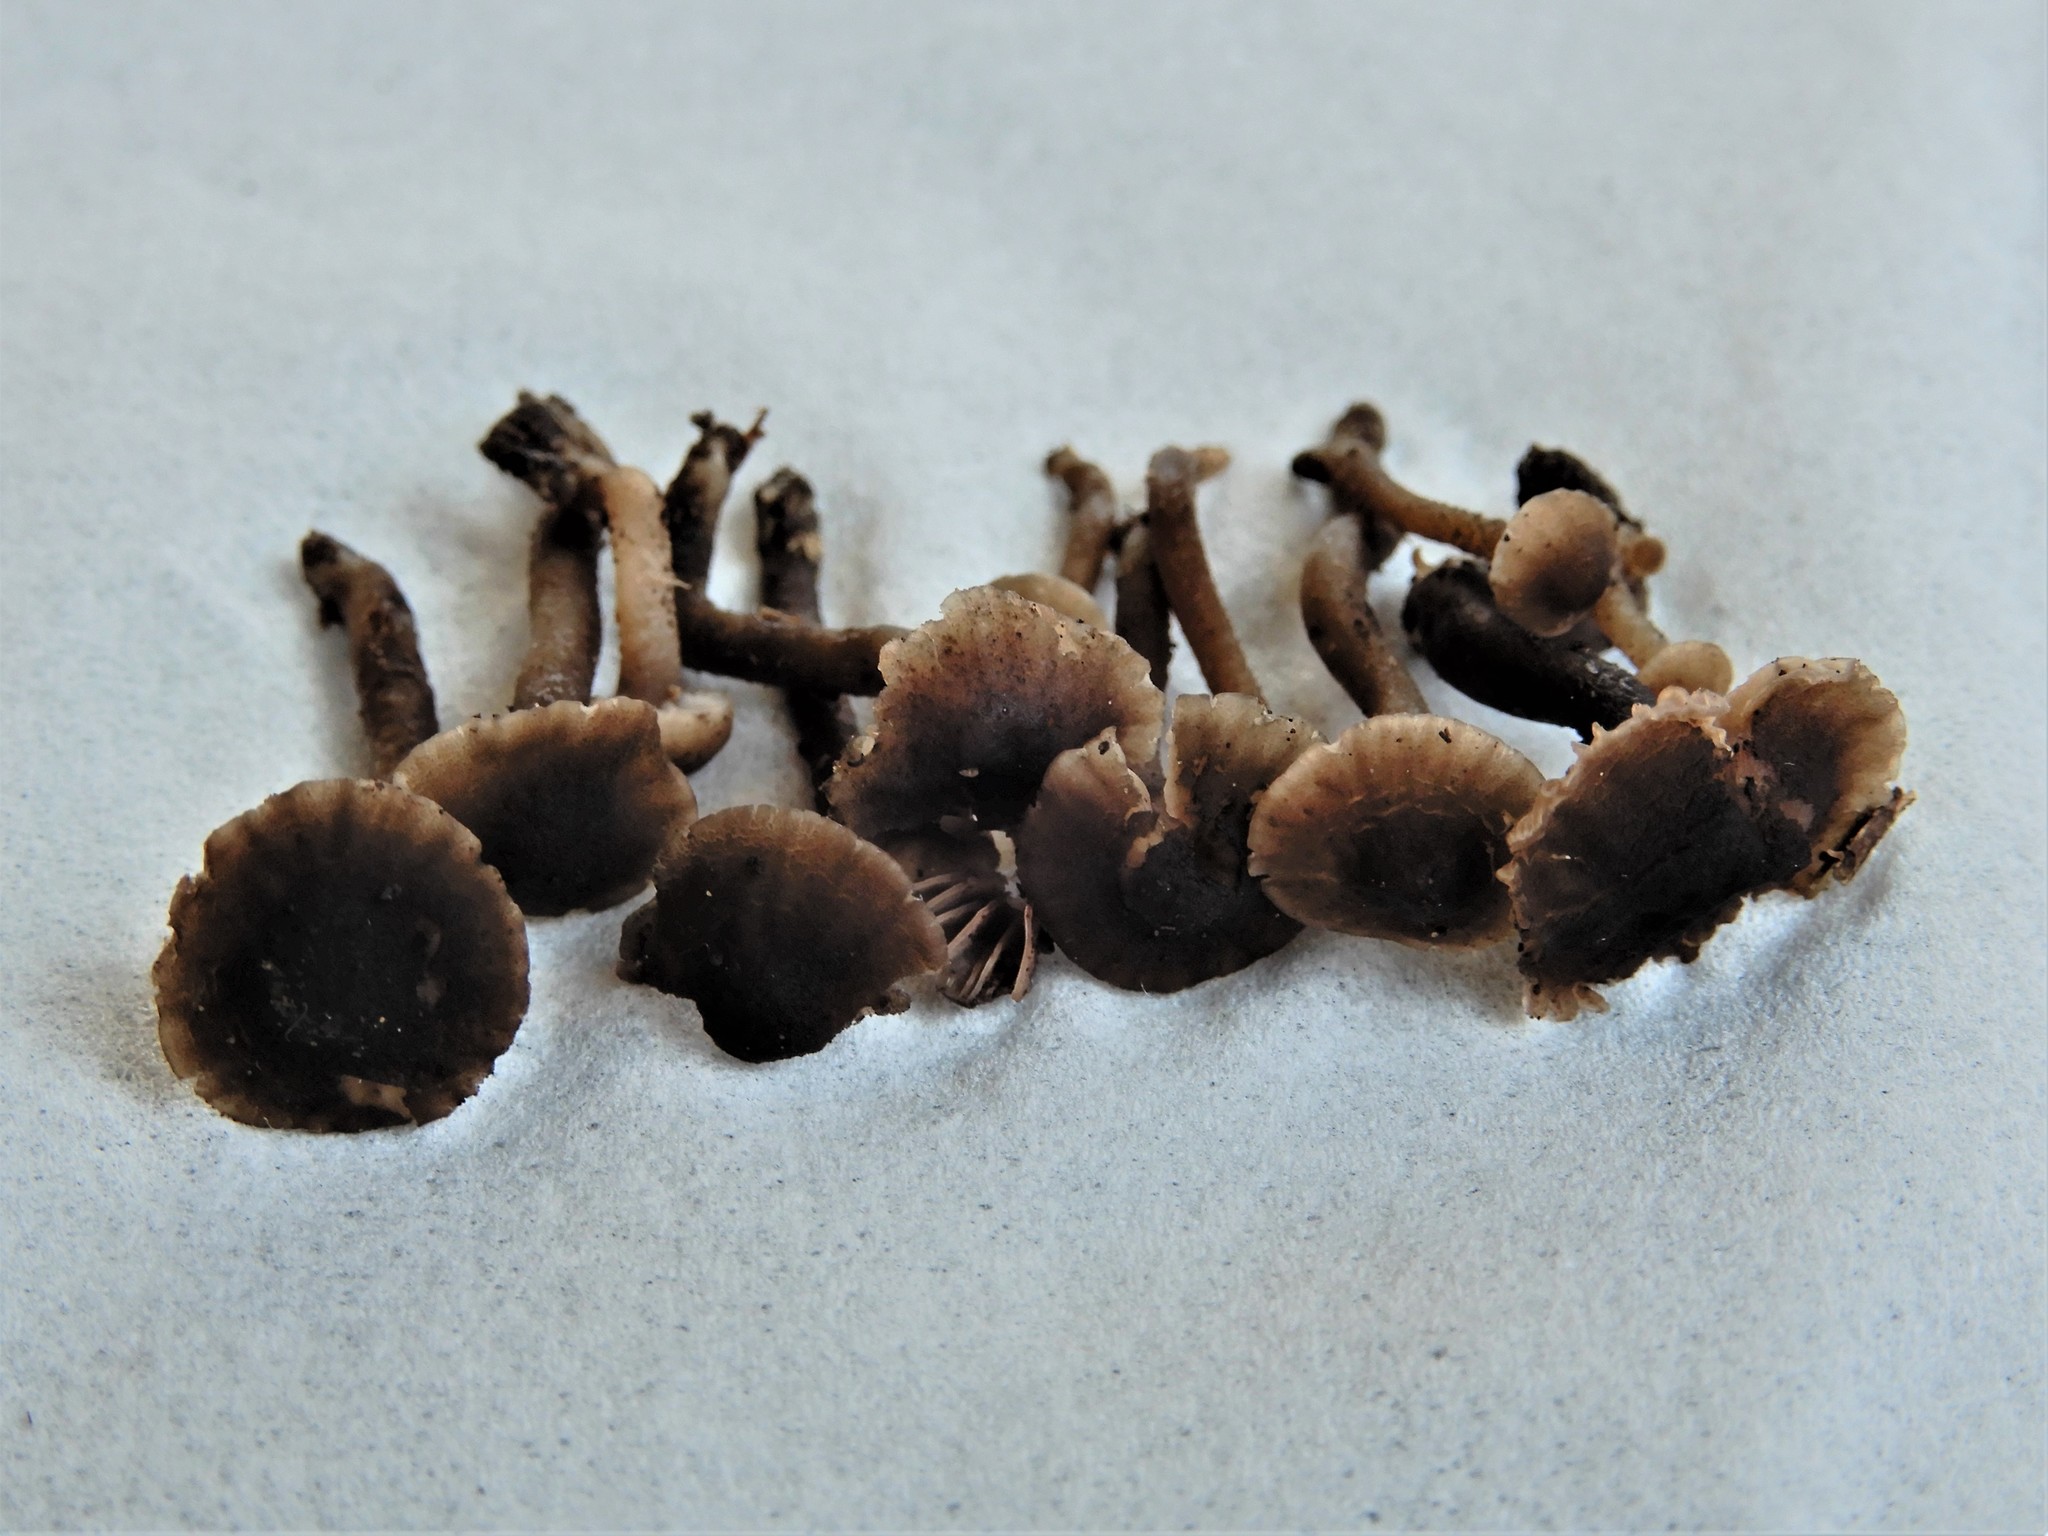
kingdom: Fungi
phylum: Basidiomycota
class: Agaricomycetes
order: Agaricales
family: Clavariaceae
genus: Hodophilus
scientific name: Hodophilus
